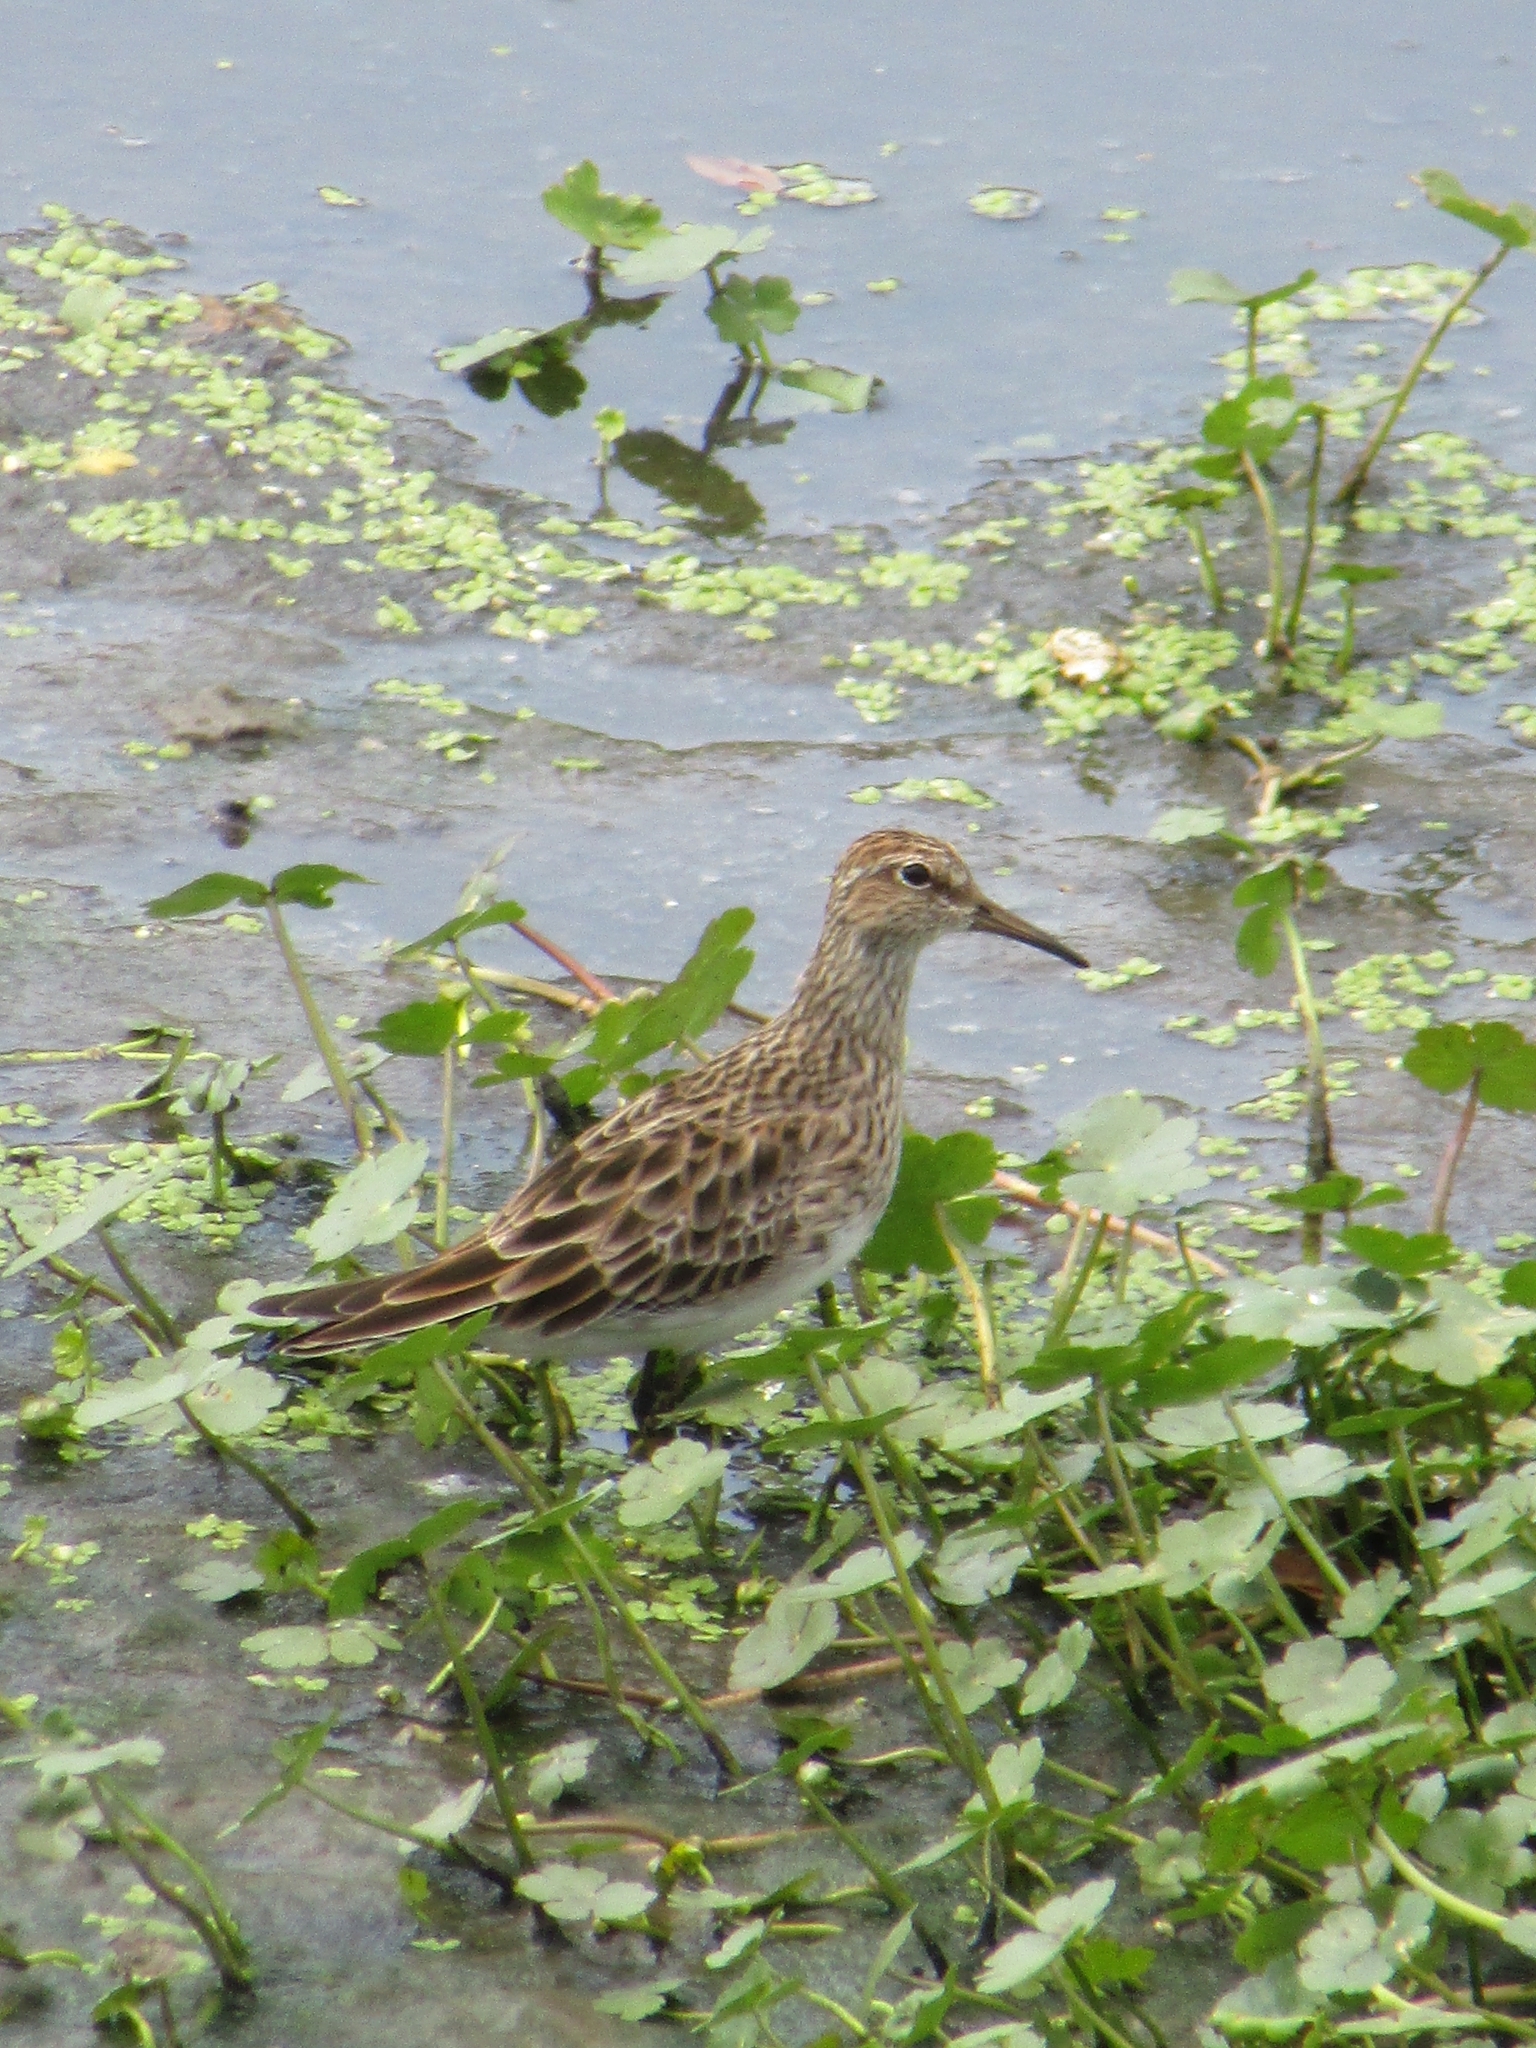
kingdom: Animalia
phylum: Chordata
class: Aves
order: Charadriiformes
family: Scolopacidae
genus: Calidris
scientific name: Calidris melanotos
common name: Pectoral sandpiper
